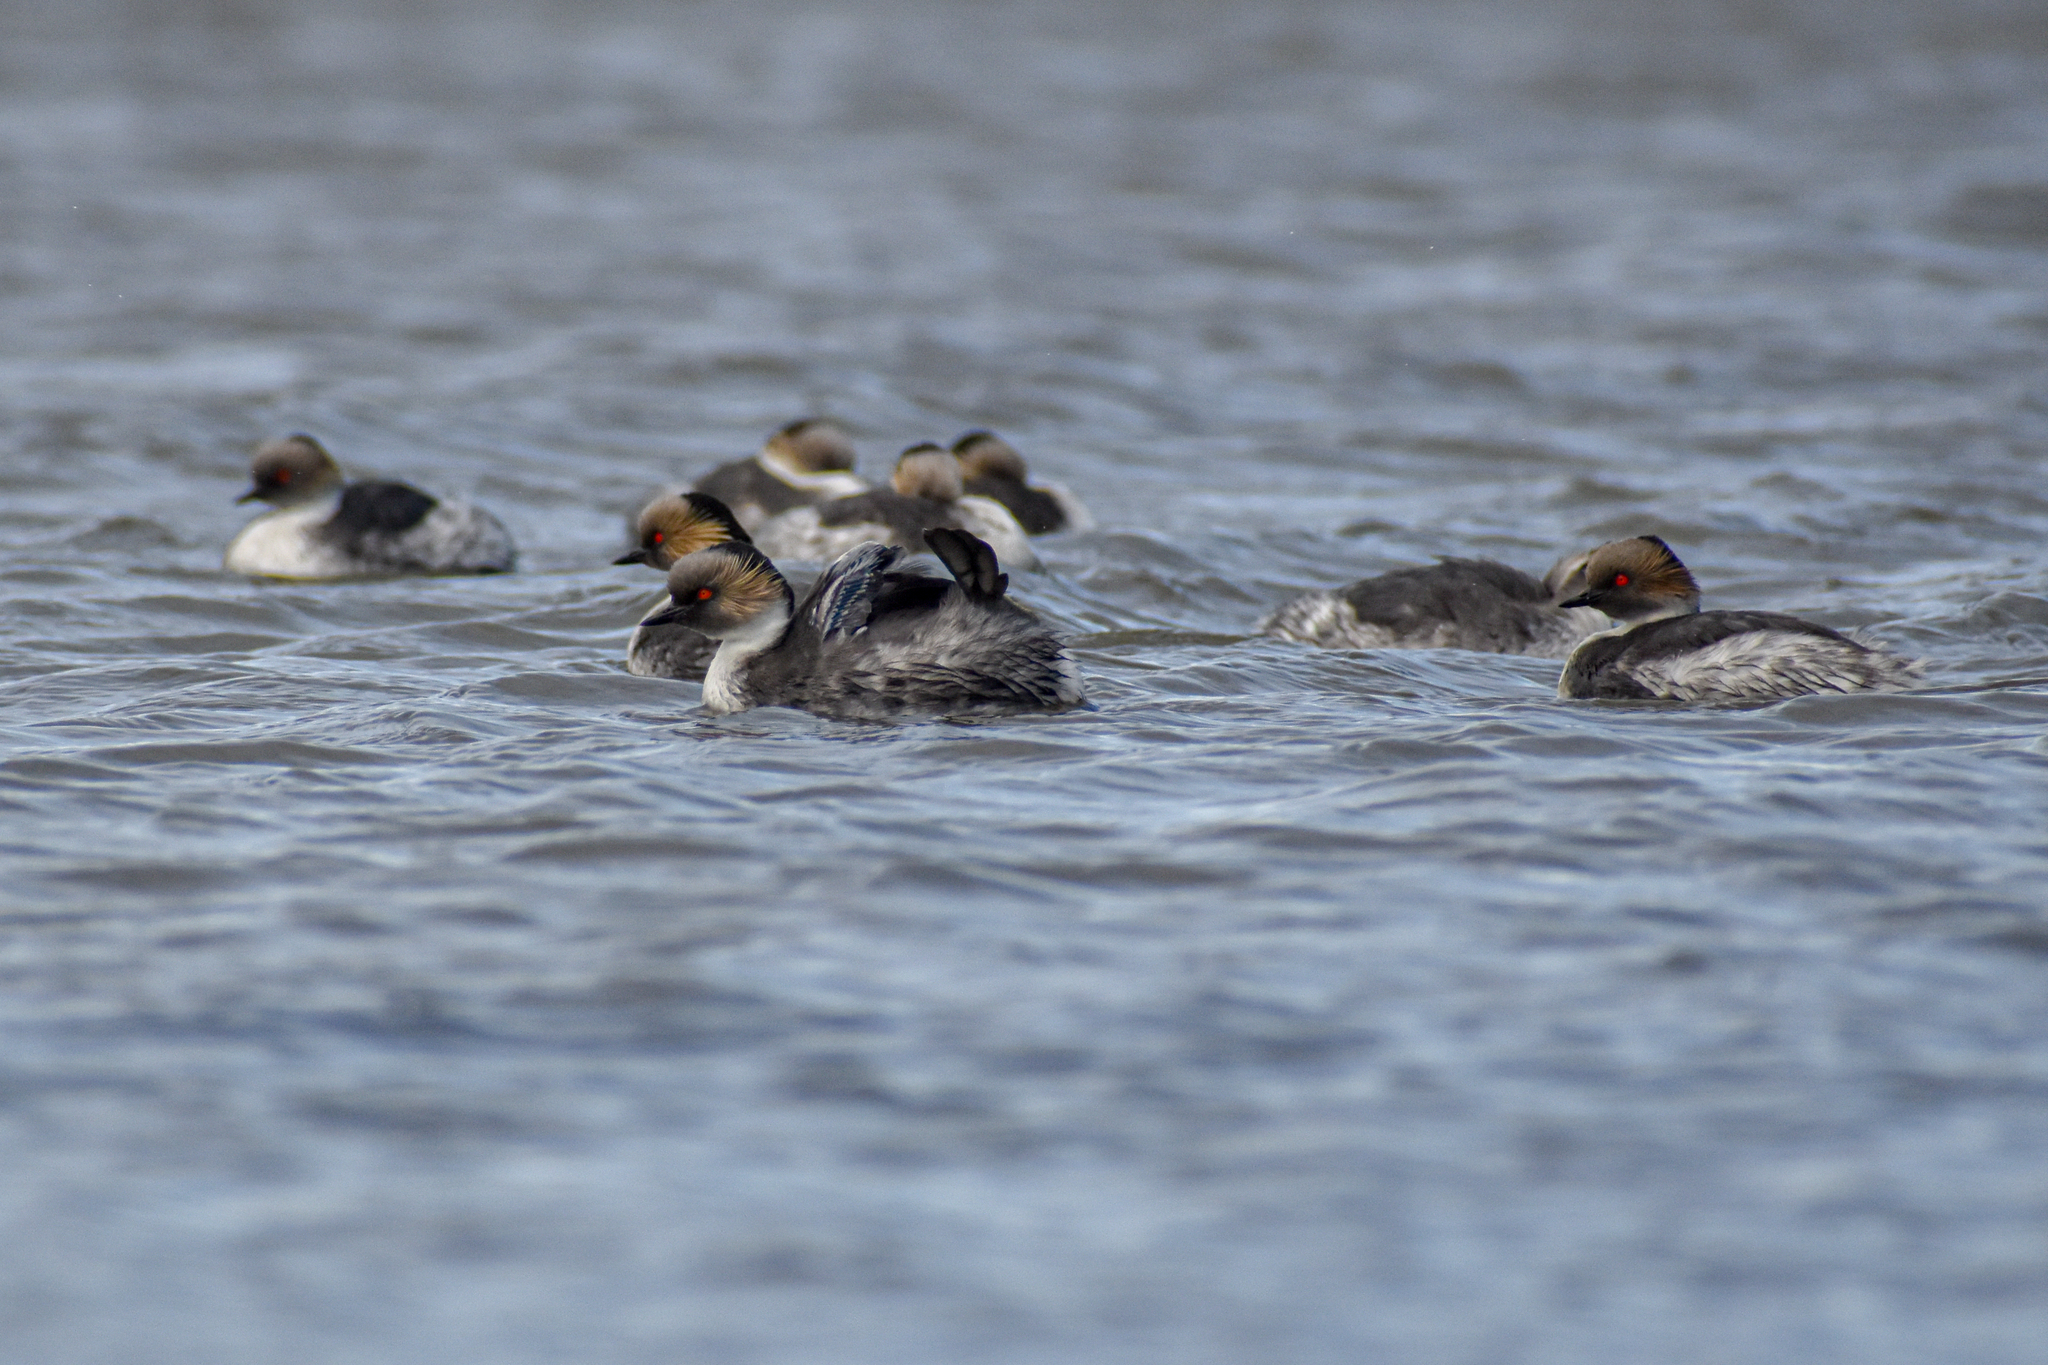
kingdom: Animalia
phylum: Chordata
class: Aves
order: Podicipediformes
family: Podicipedidae
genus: Podiceps
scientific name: Podiceps occipitalis
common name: Silvery grebe
